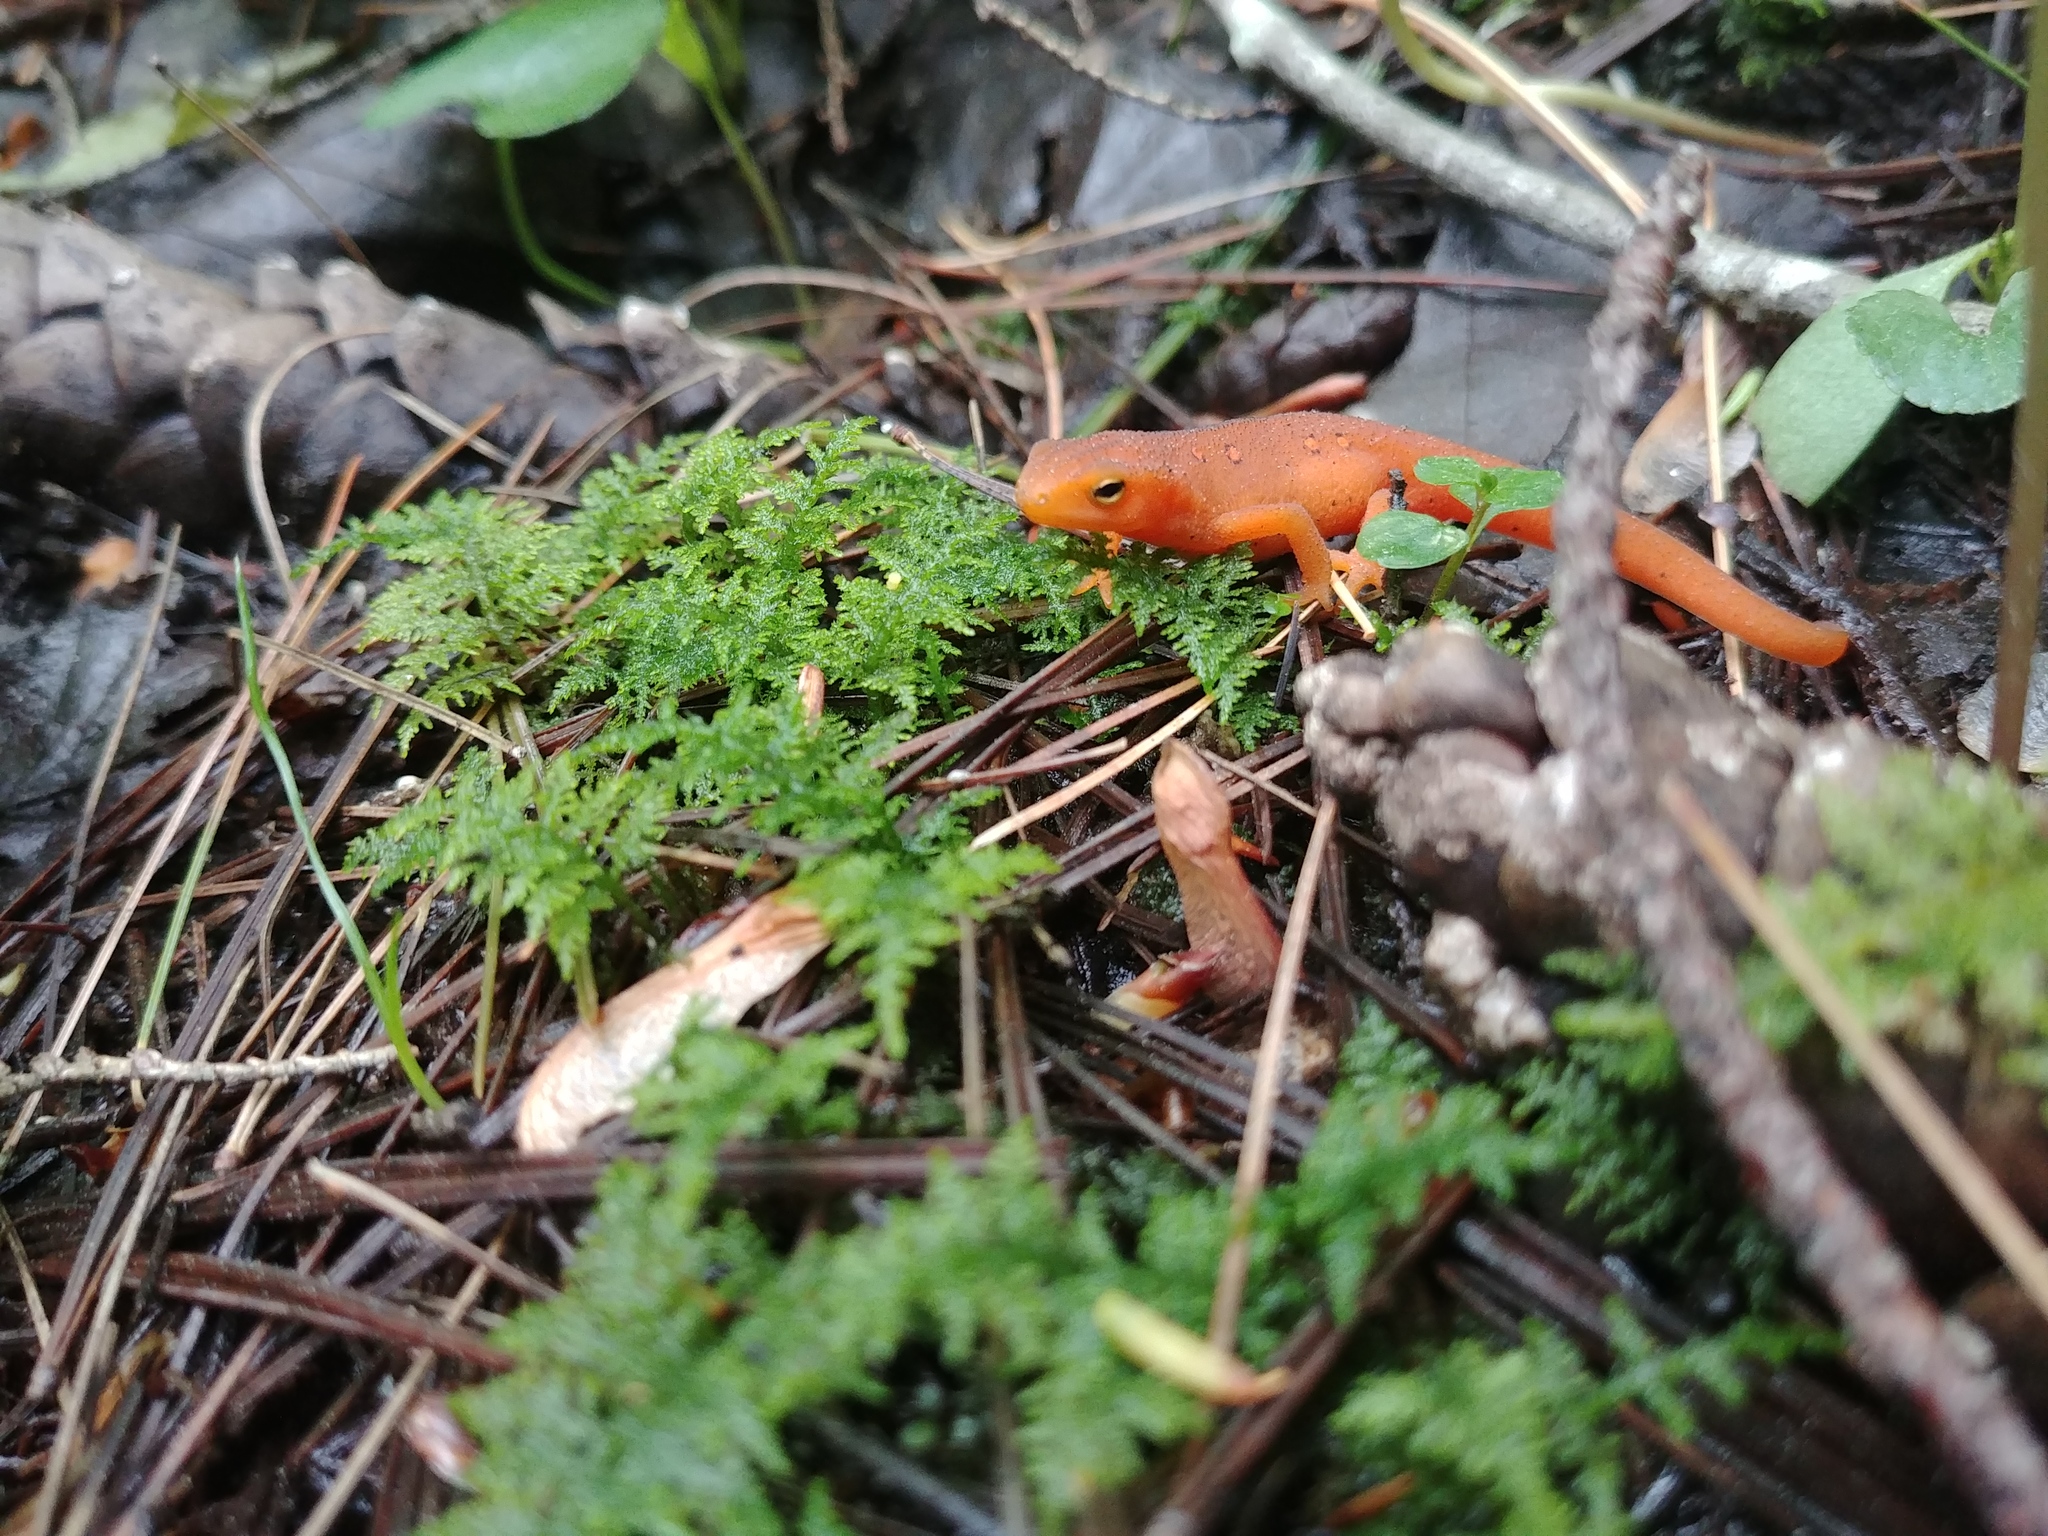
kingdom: Animalia
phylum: Chordata
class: Amphibia
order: Caudata
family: Salamandridae
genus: Notophthalmus
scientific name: Notophthalmus viridescens
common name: Eastern newt
